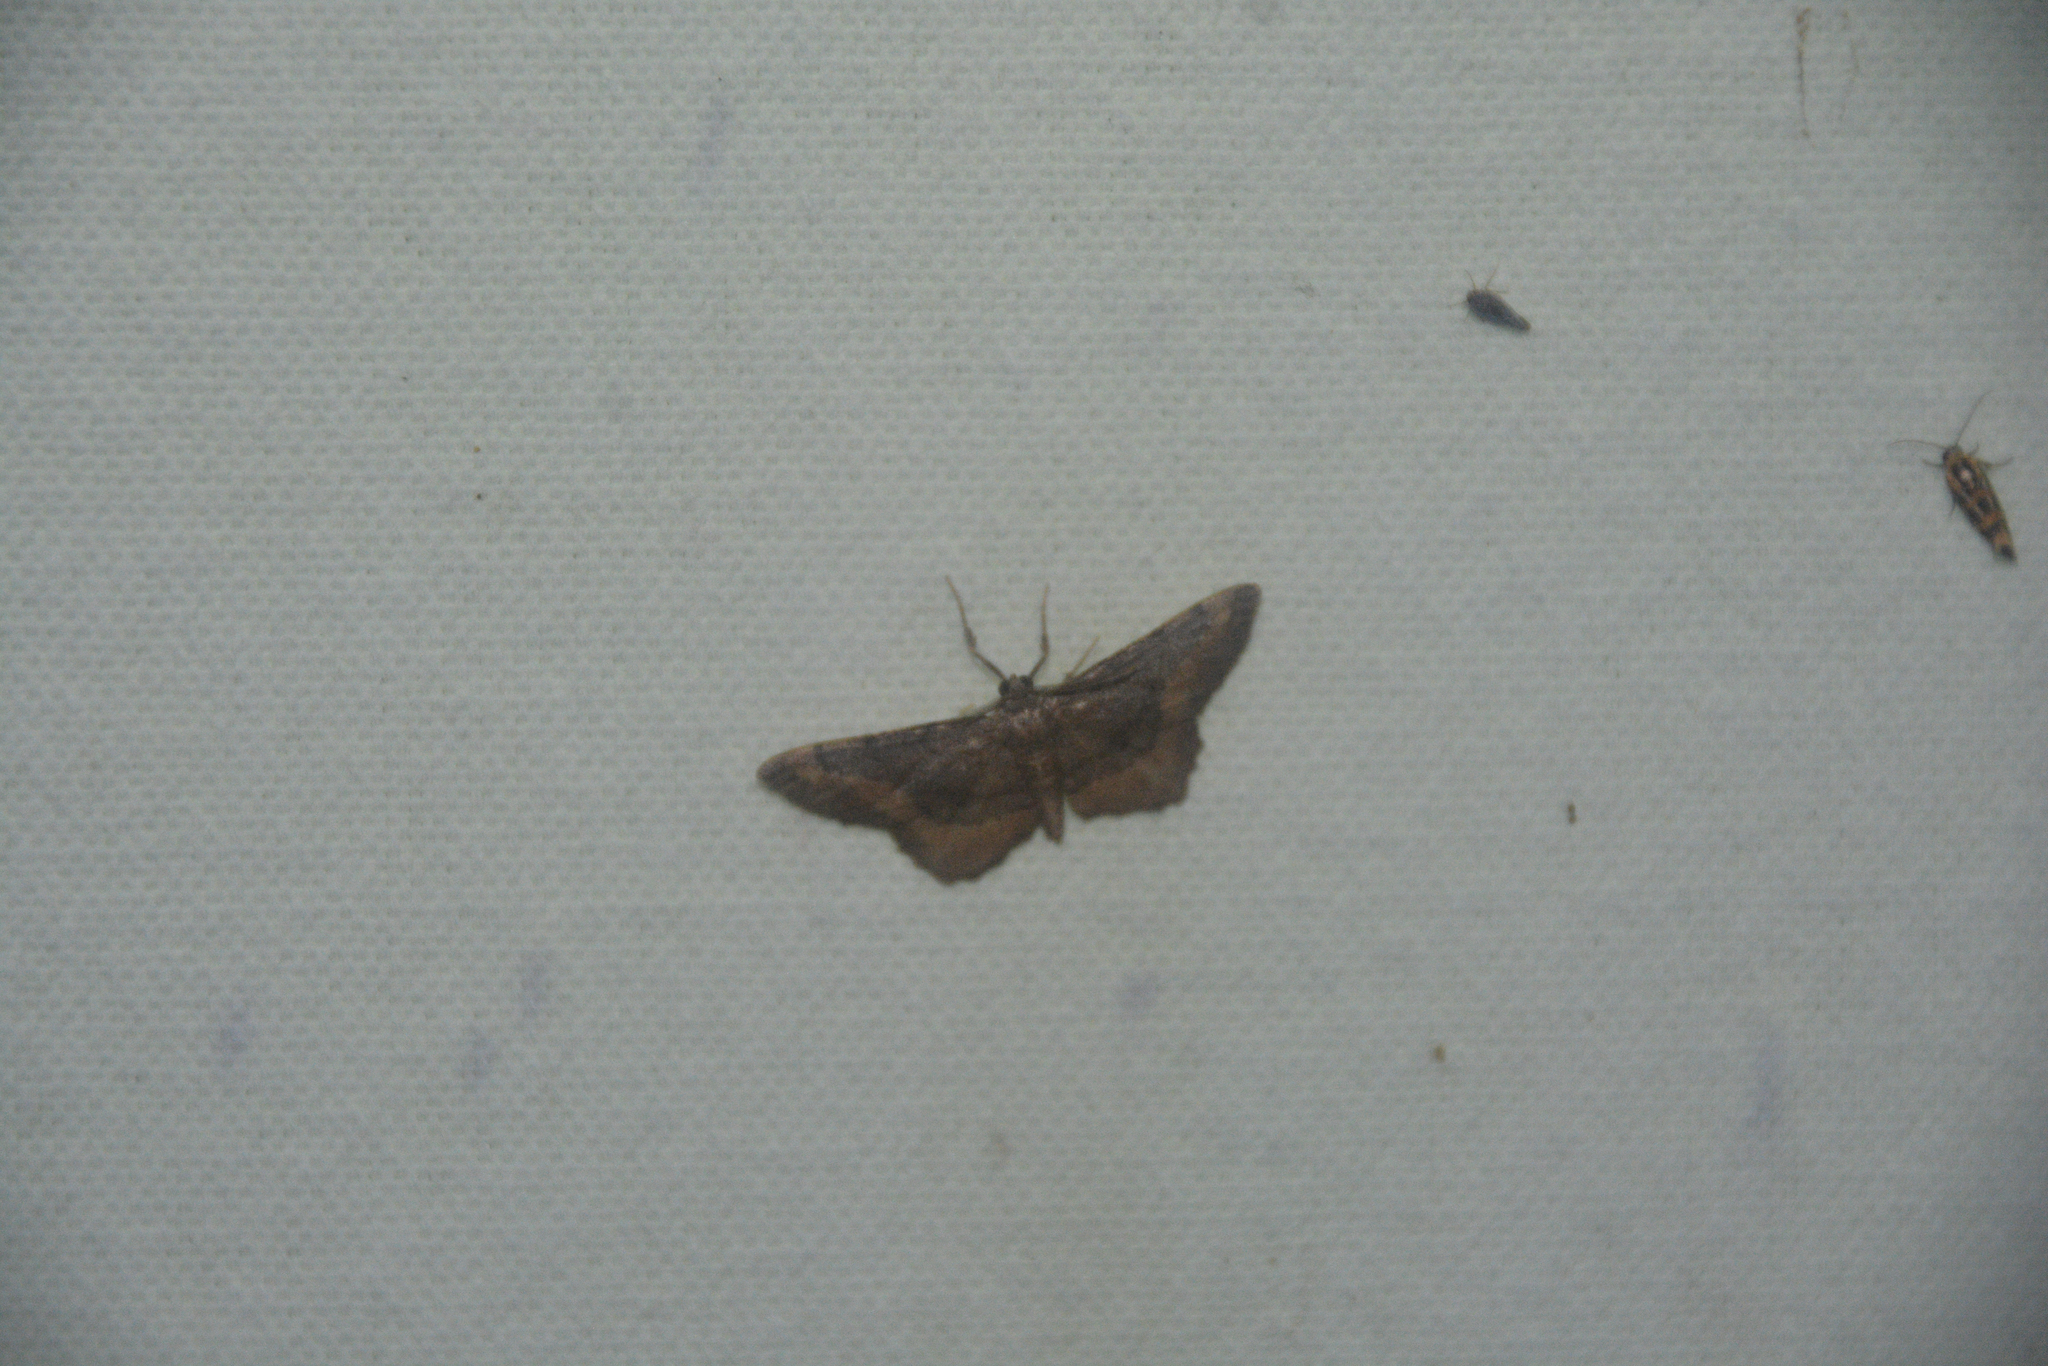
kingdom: Animalia
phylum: Arthropoda
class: Insecta
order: Lepidoptera
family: Noctuidae
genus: Acontia
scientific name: Acontia leo
